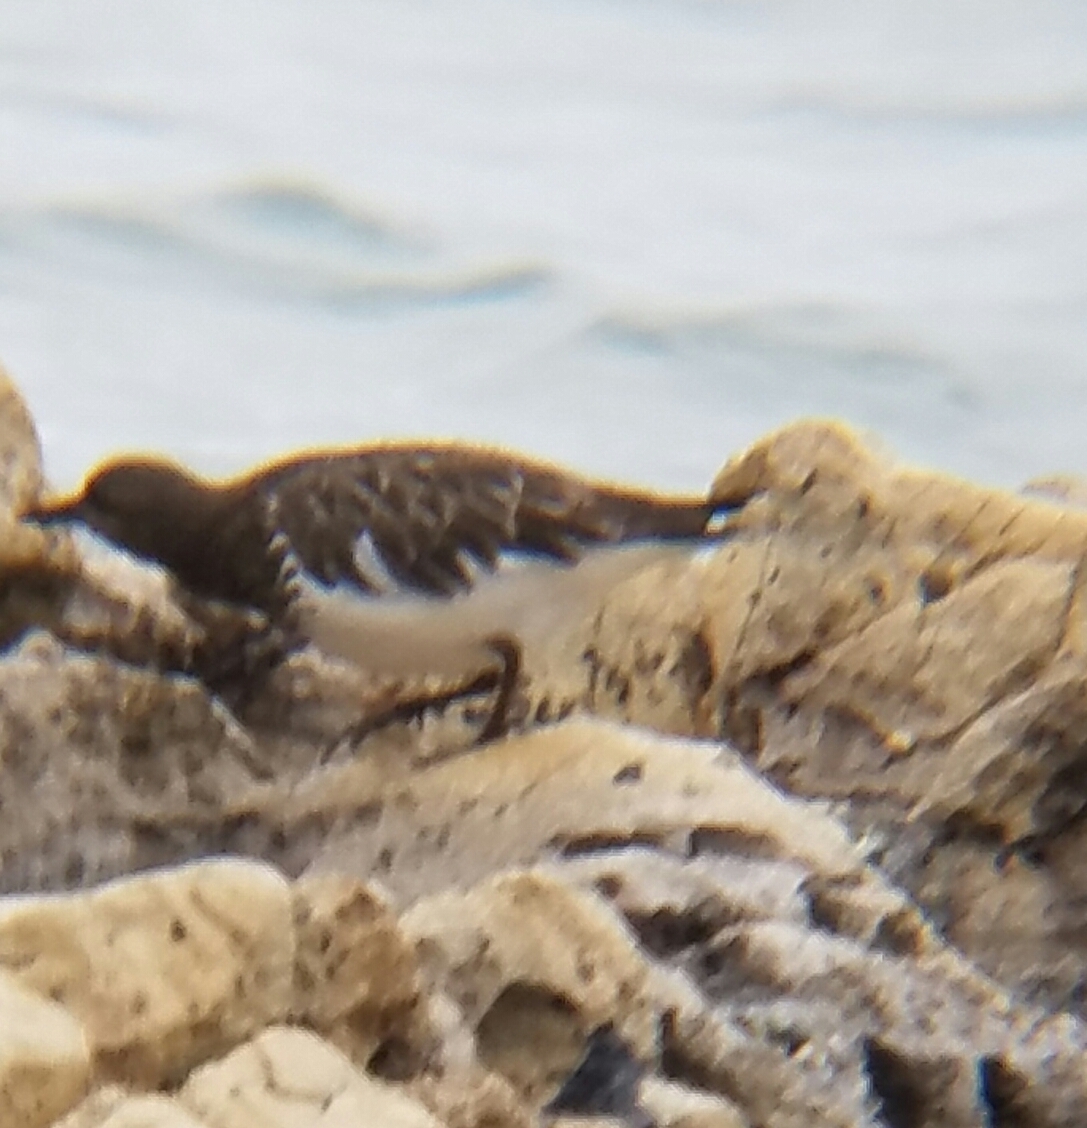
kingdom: Animalia
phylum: Chordata
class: Aves
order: Charadriiformes
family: Scolopacidae
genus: Arenaria
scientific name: Arenaria melanocephala
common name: Black turnstone
